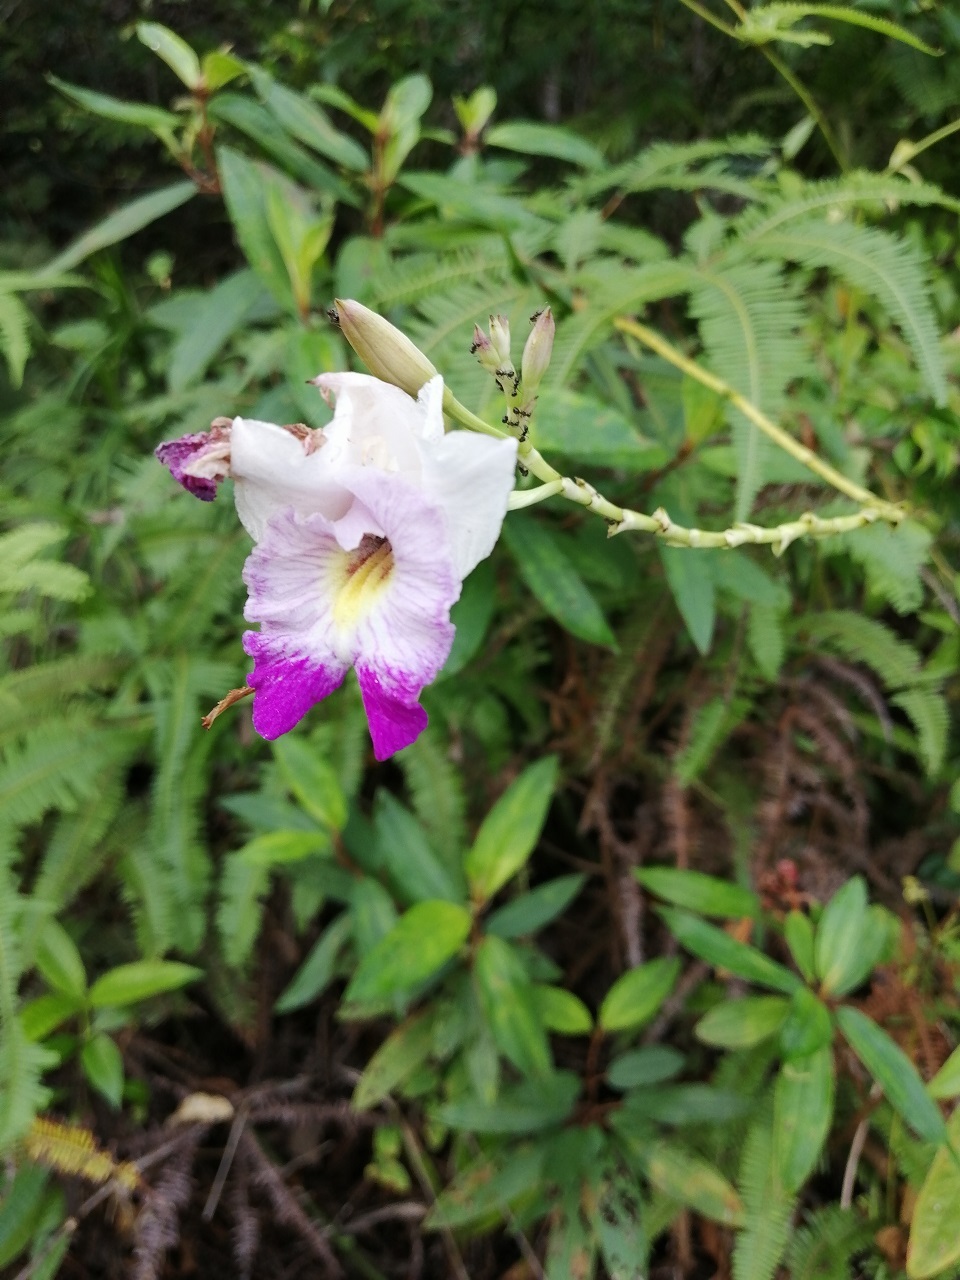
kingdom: Plantae
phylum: Tracheophyta
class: Liliopsida
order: Asparagales
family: Orchidaceae
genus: Arundina
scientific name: Arundina graminifolia
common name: Bamboo orchid
